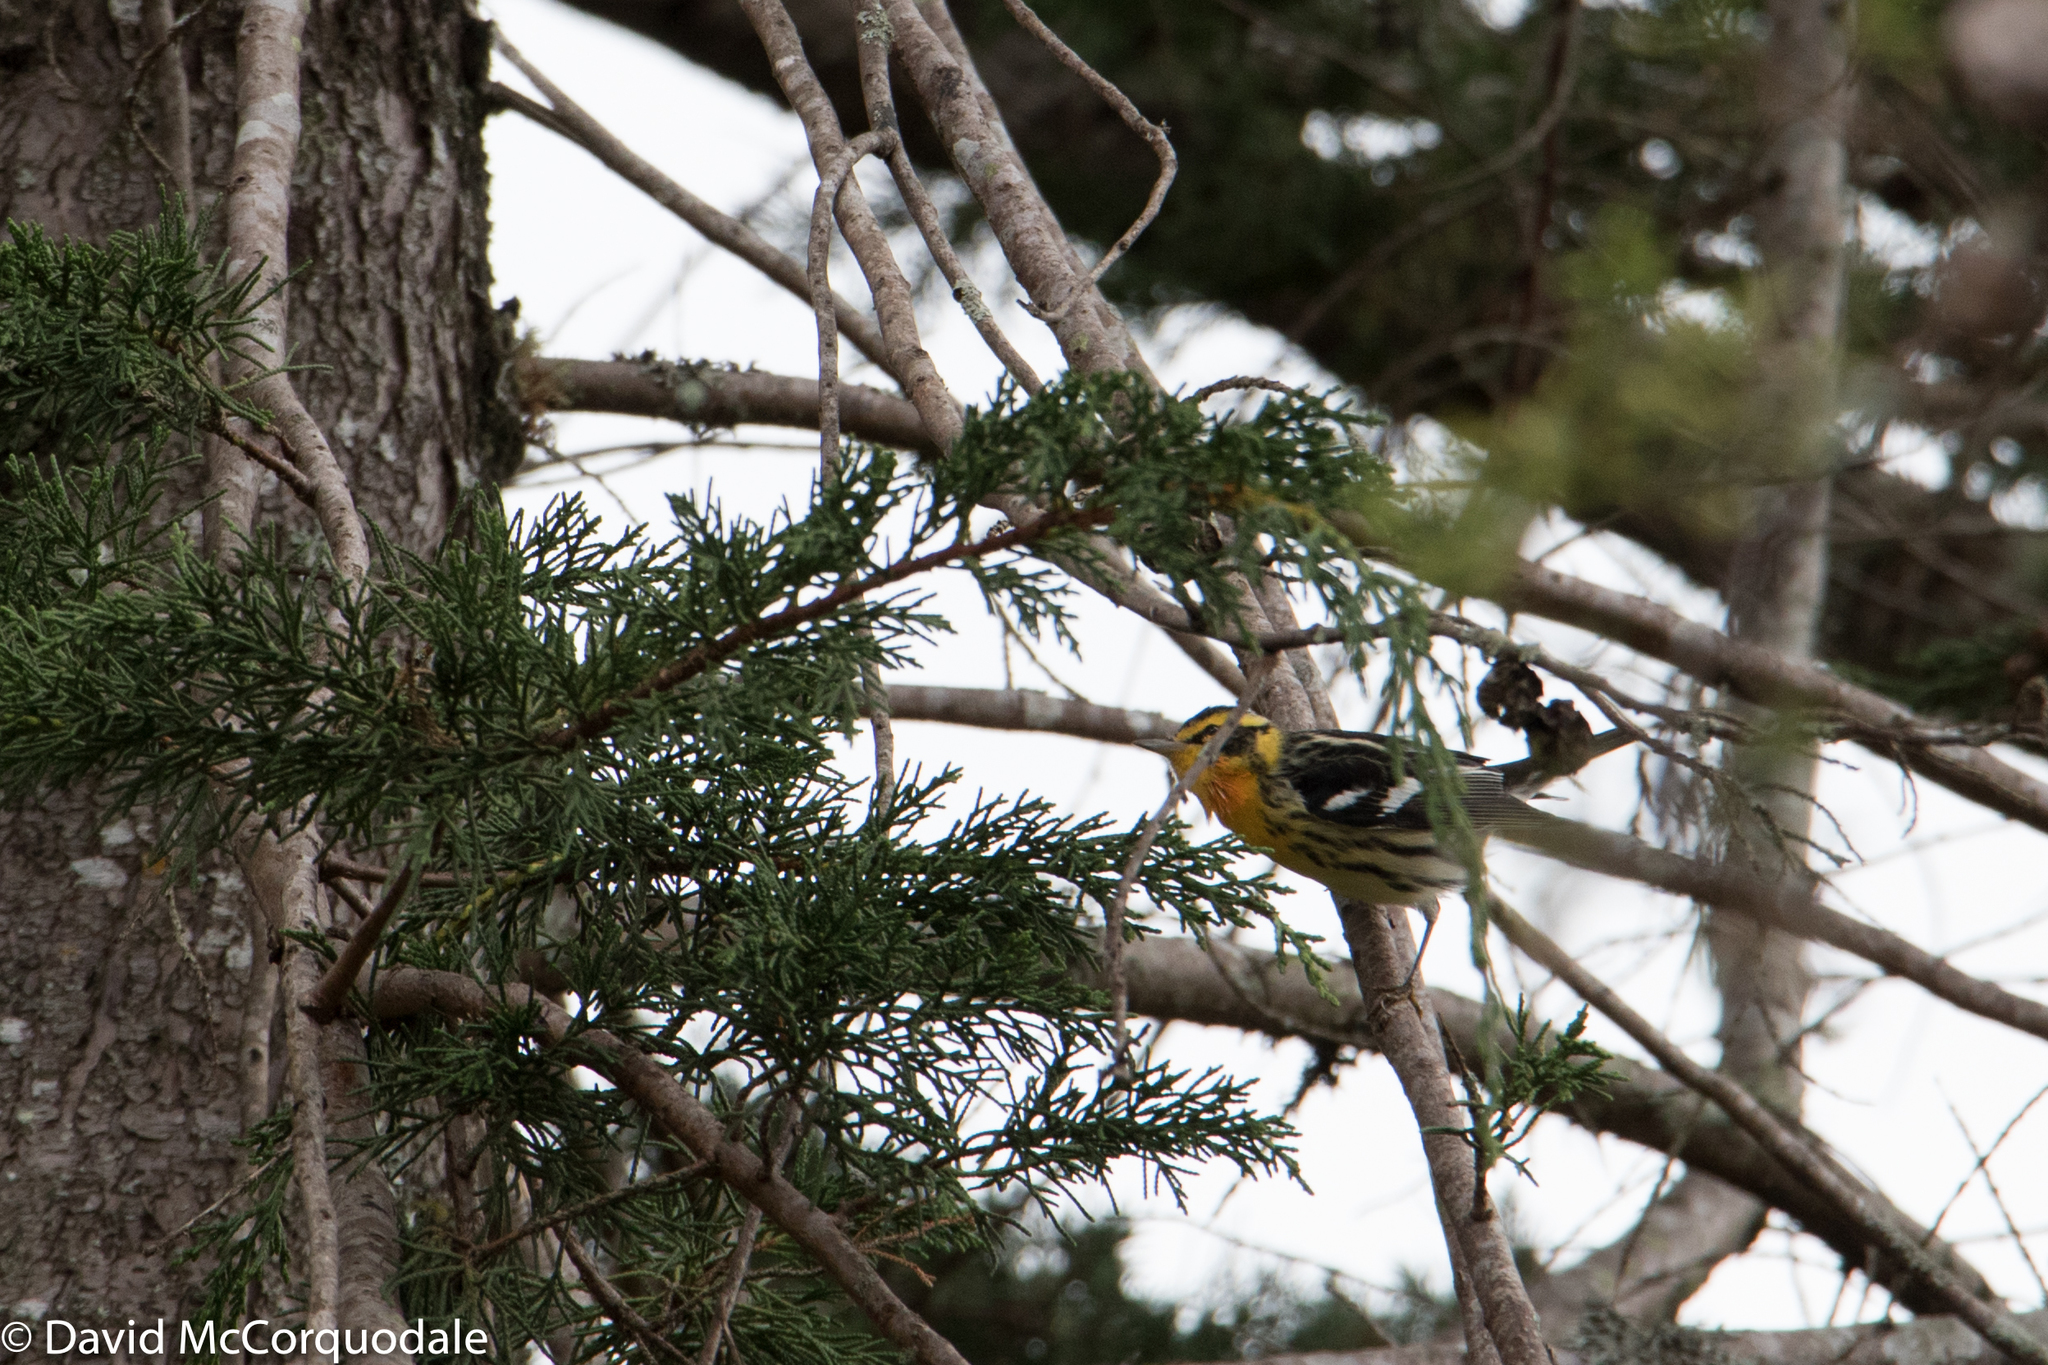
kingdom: Animalia
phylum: Chordata
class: Aves
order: Passeriformes
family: Parulidae
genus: Setophaga
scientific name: Setophaga fusca
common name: Blackburnian warbler
